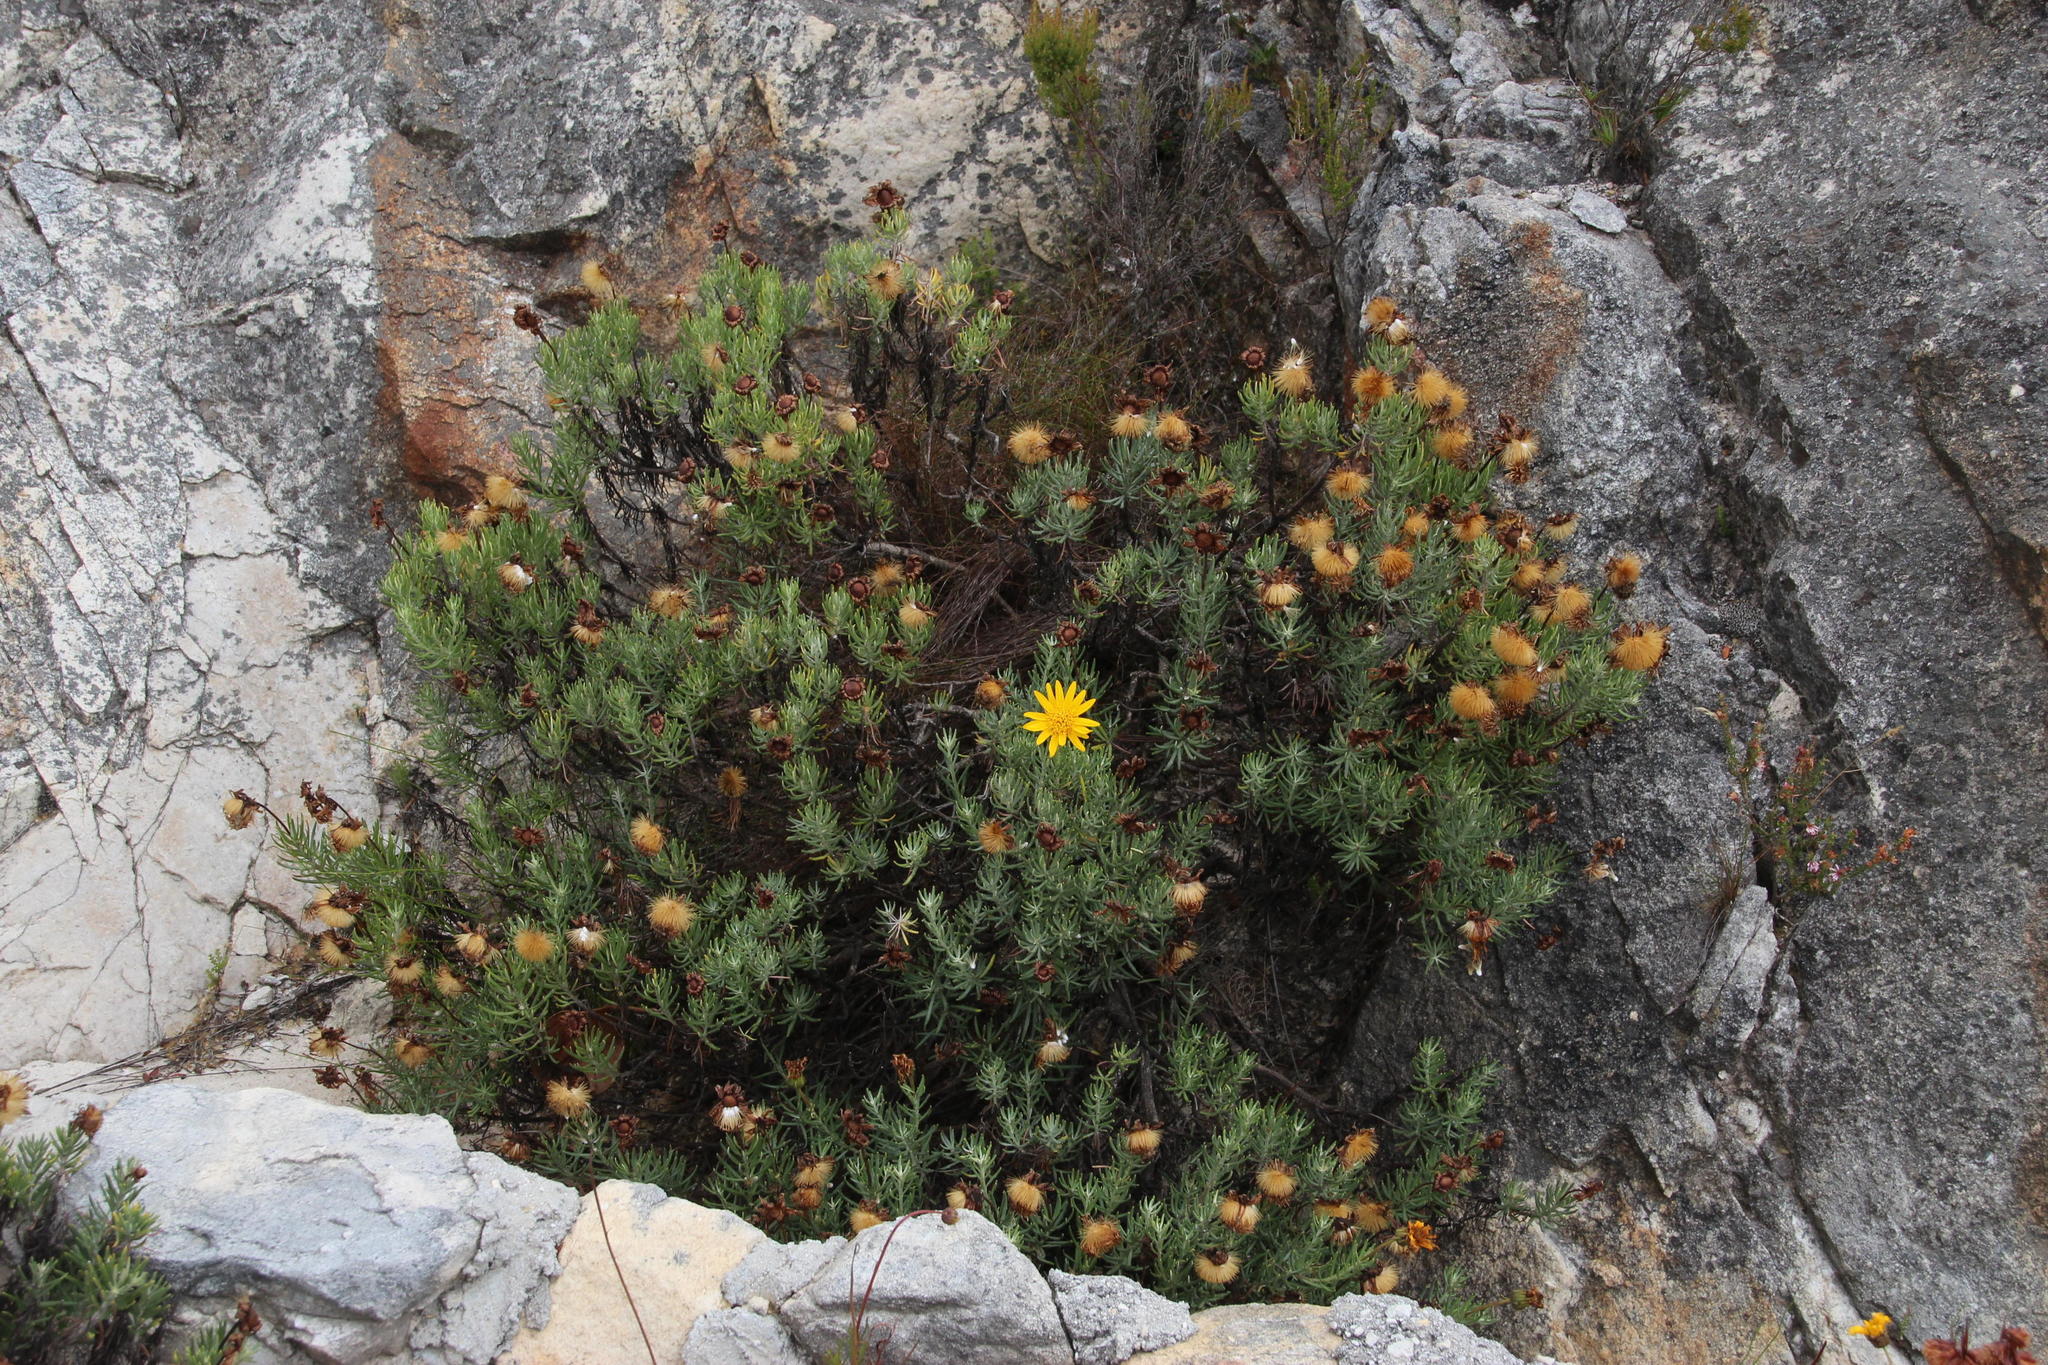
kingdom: Plantae
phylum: Tracheophyta
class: Magnoliopsida
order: Asterales
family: Asteraceae
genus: Heterolepis
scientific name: Heterolepis aliena
